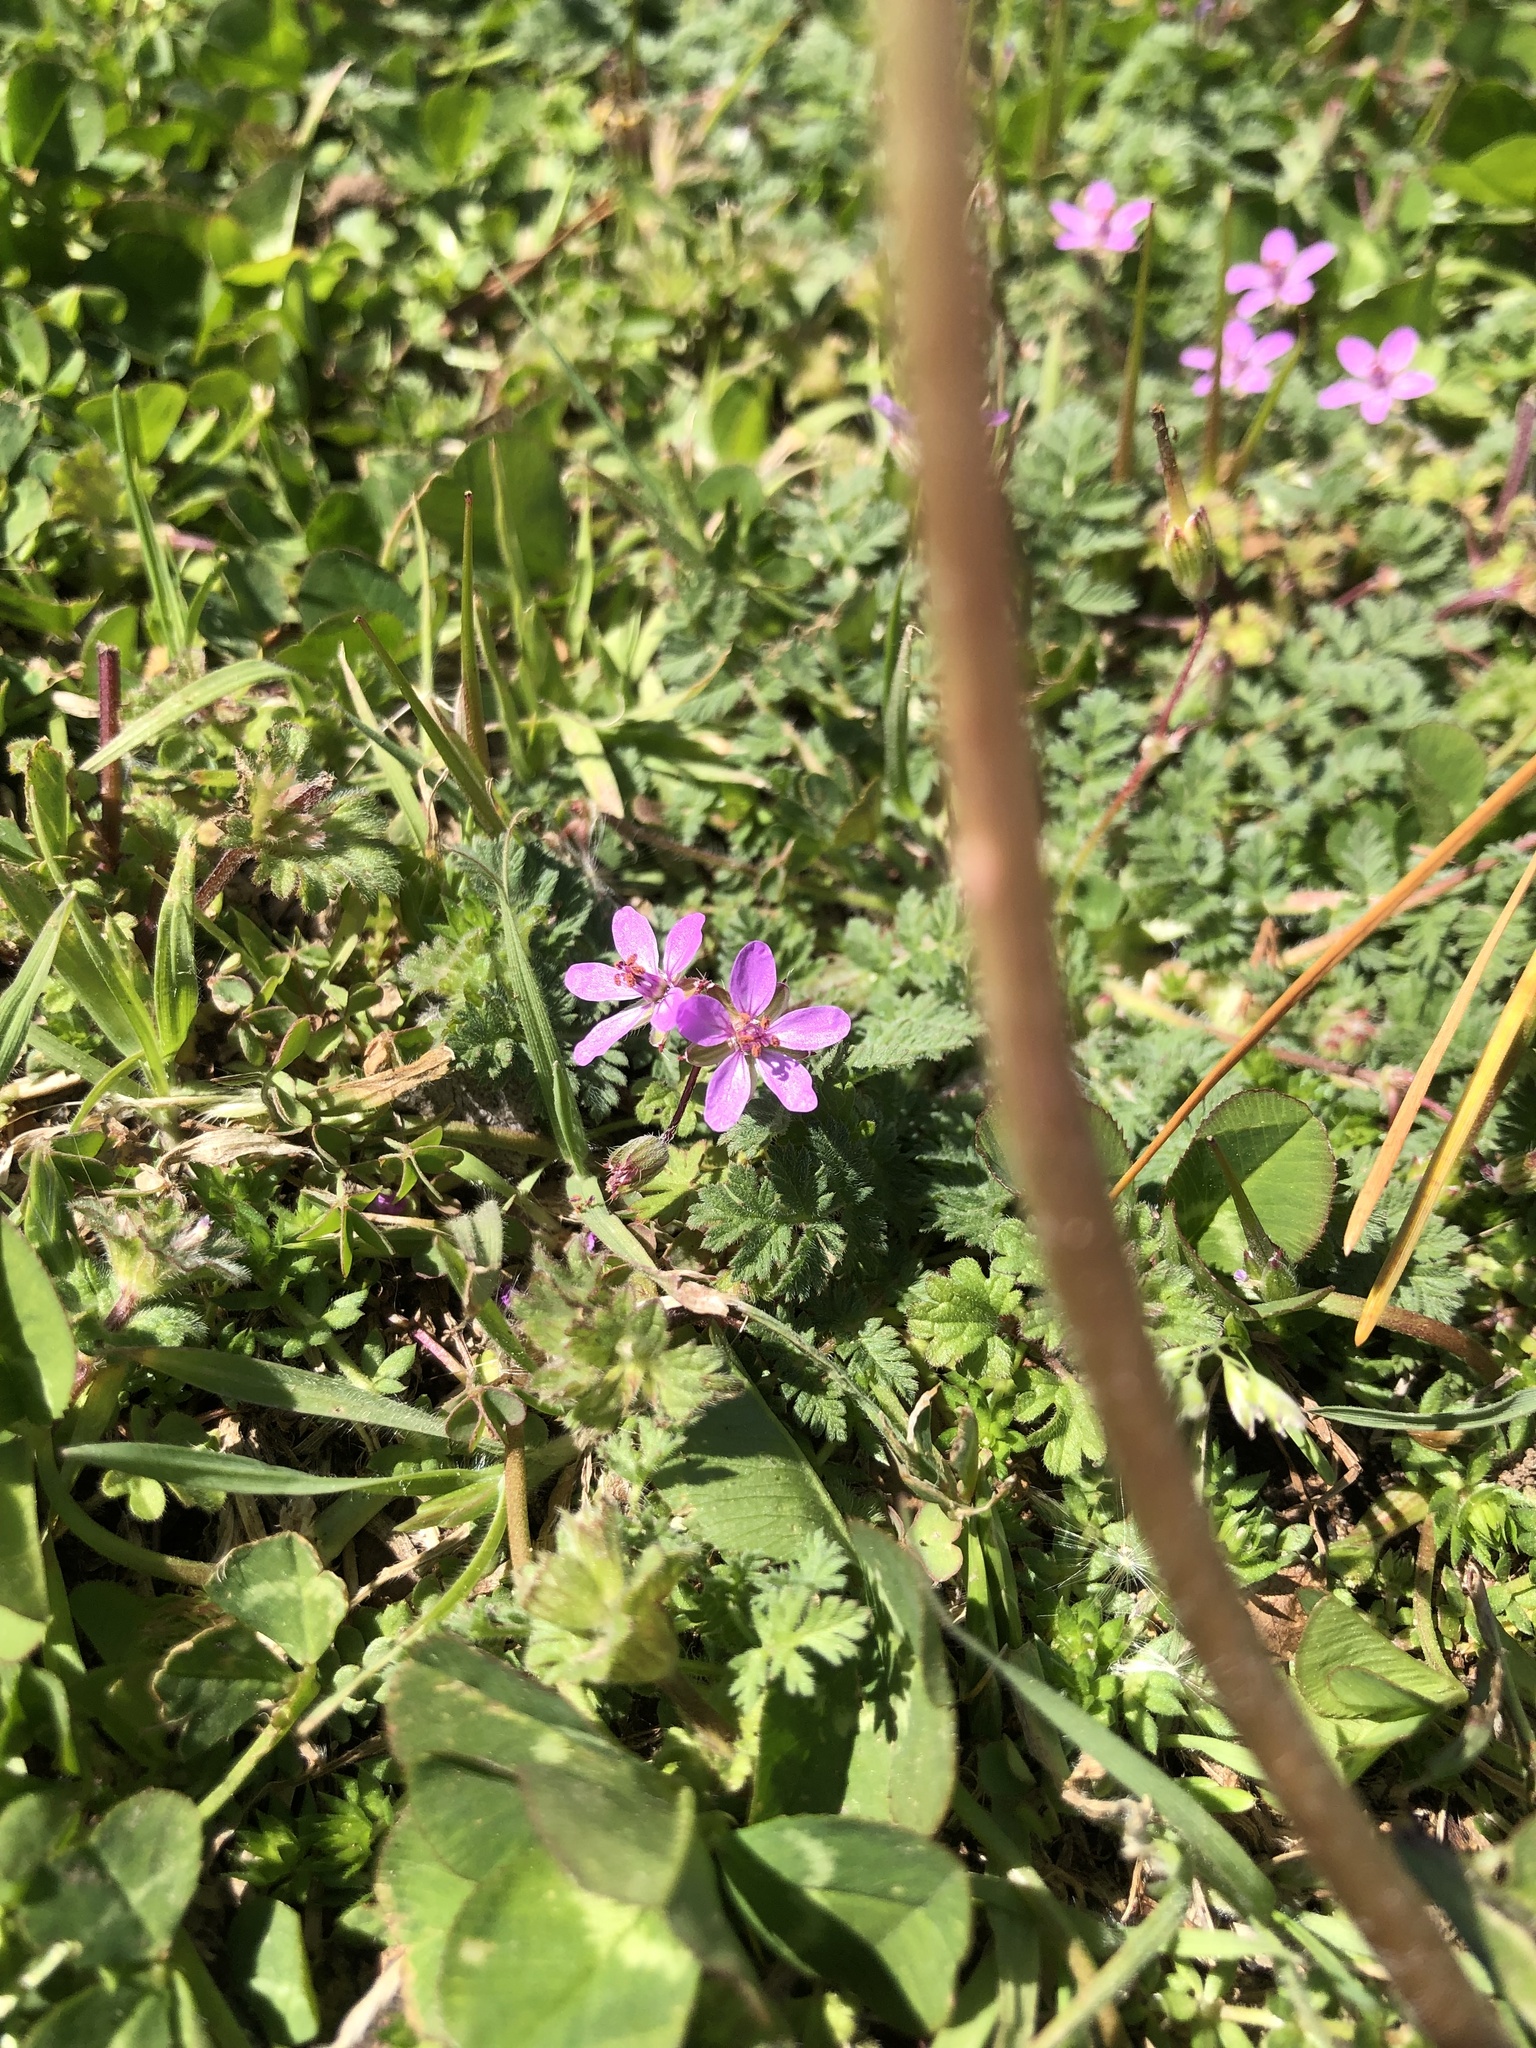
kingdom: Plantae
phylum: Tracheophyta
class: Magnoliopsida
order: Geraniales
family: Geraniaceae
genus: Erodium
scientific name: Erodium cicutarium
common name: Common stork's-bill
